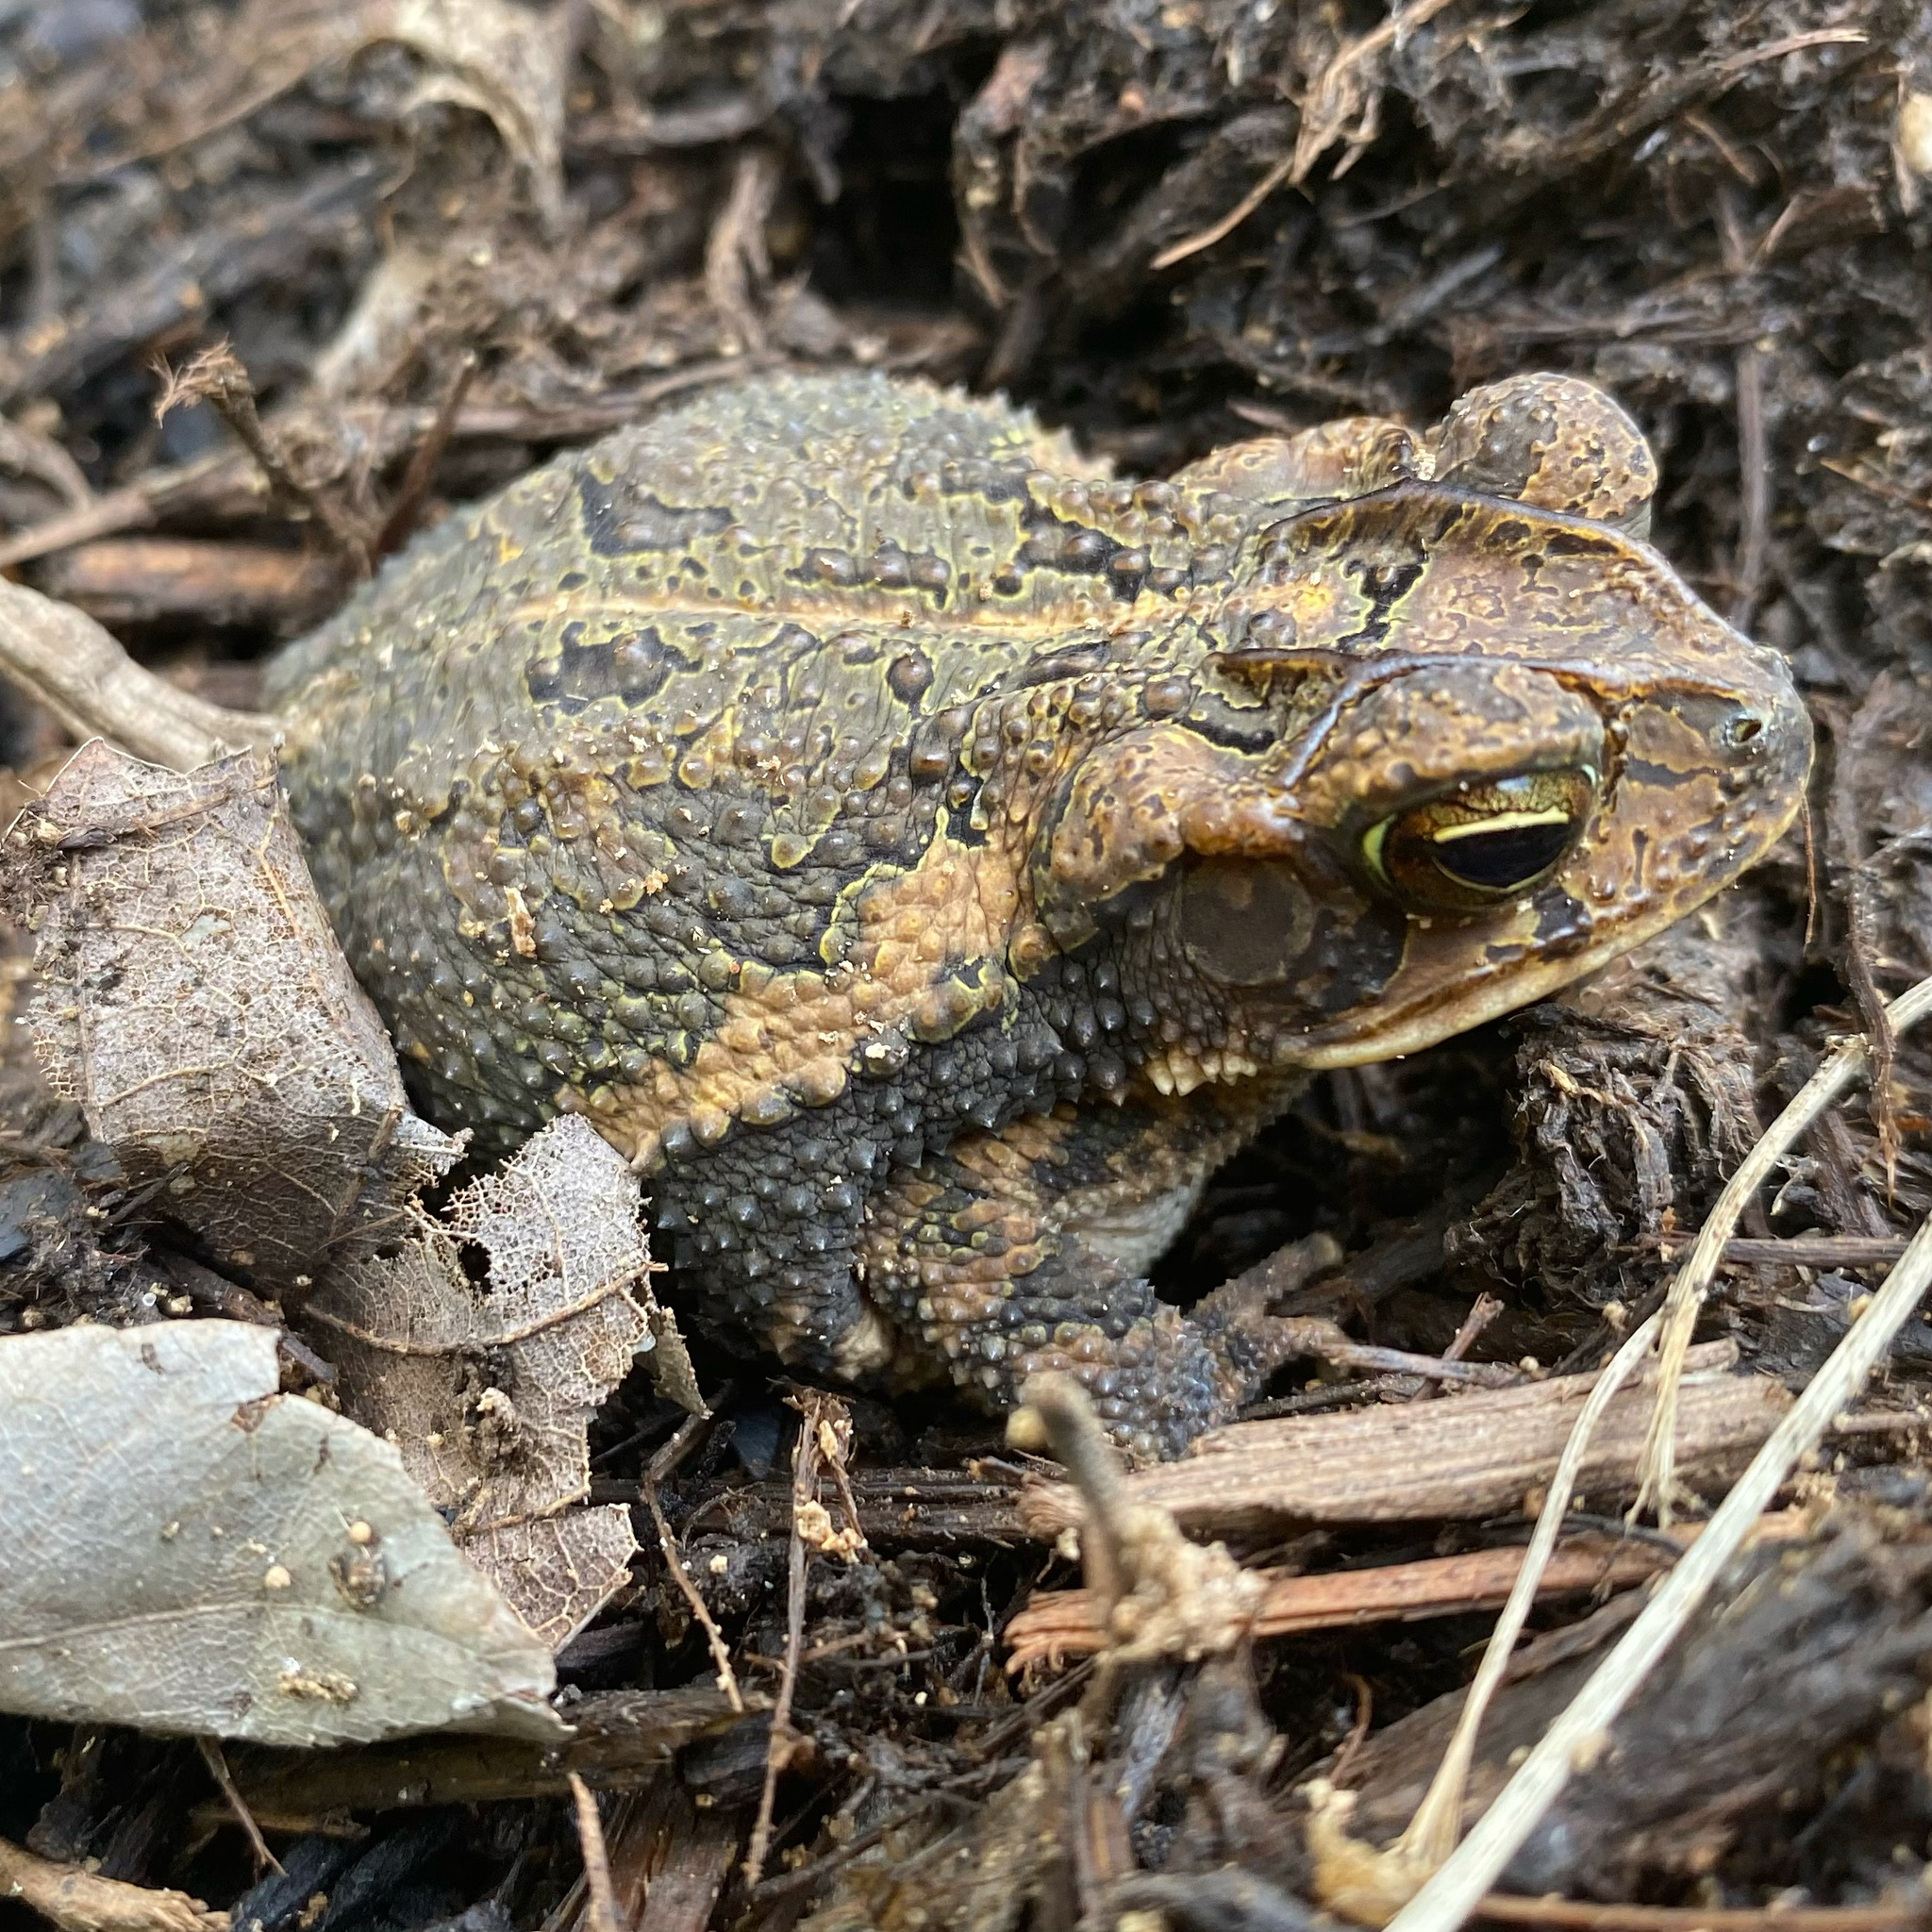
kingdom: Animalia
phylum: Chordata
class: Amphibia
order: Anura
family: Bufonidae
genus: Incilius
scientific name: Incilius nebulifer
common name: Gulf coast toad
